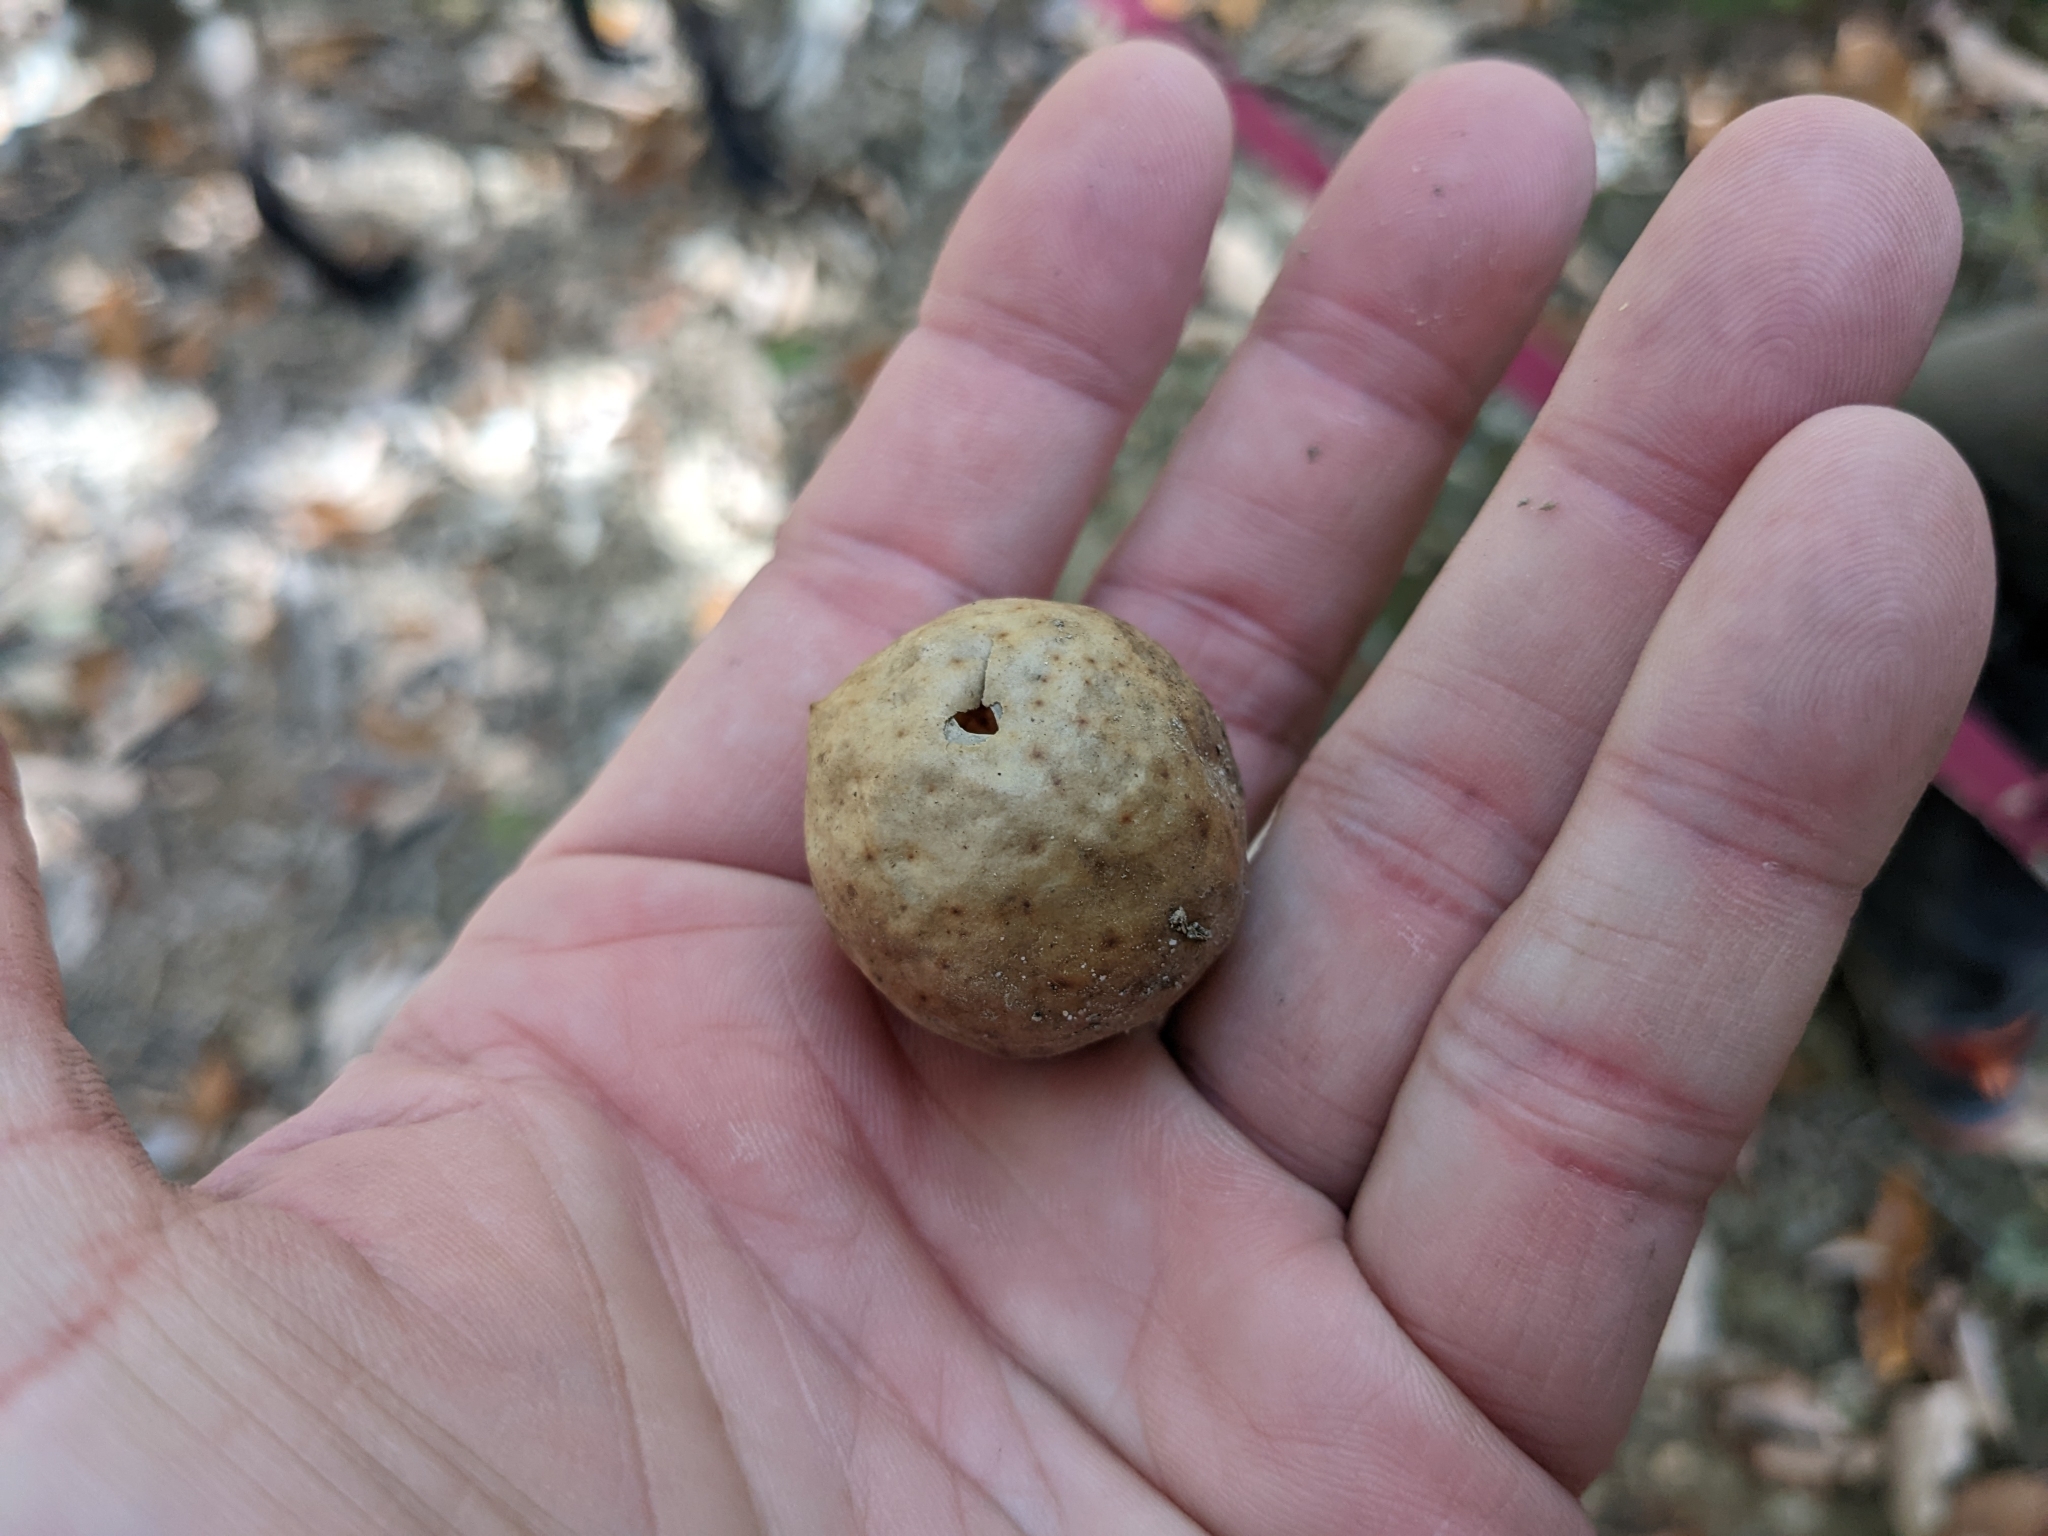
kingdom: Animalia
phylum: Arthropoda
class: Insecta
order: Hymenoptera
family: Cynipidae
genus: Amphibolips
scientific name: Amphibolips
